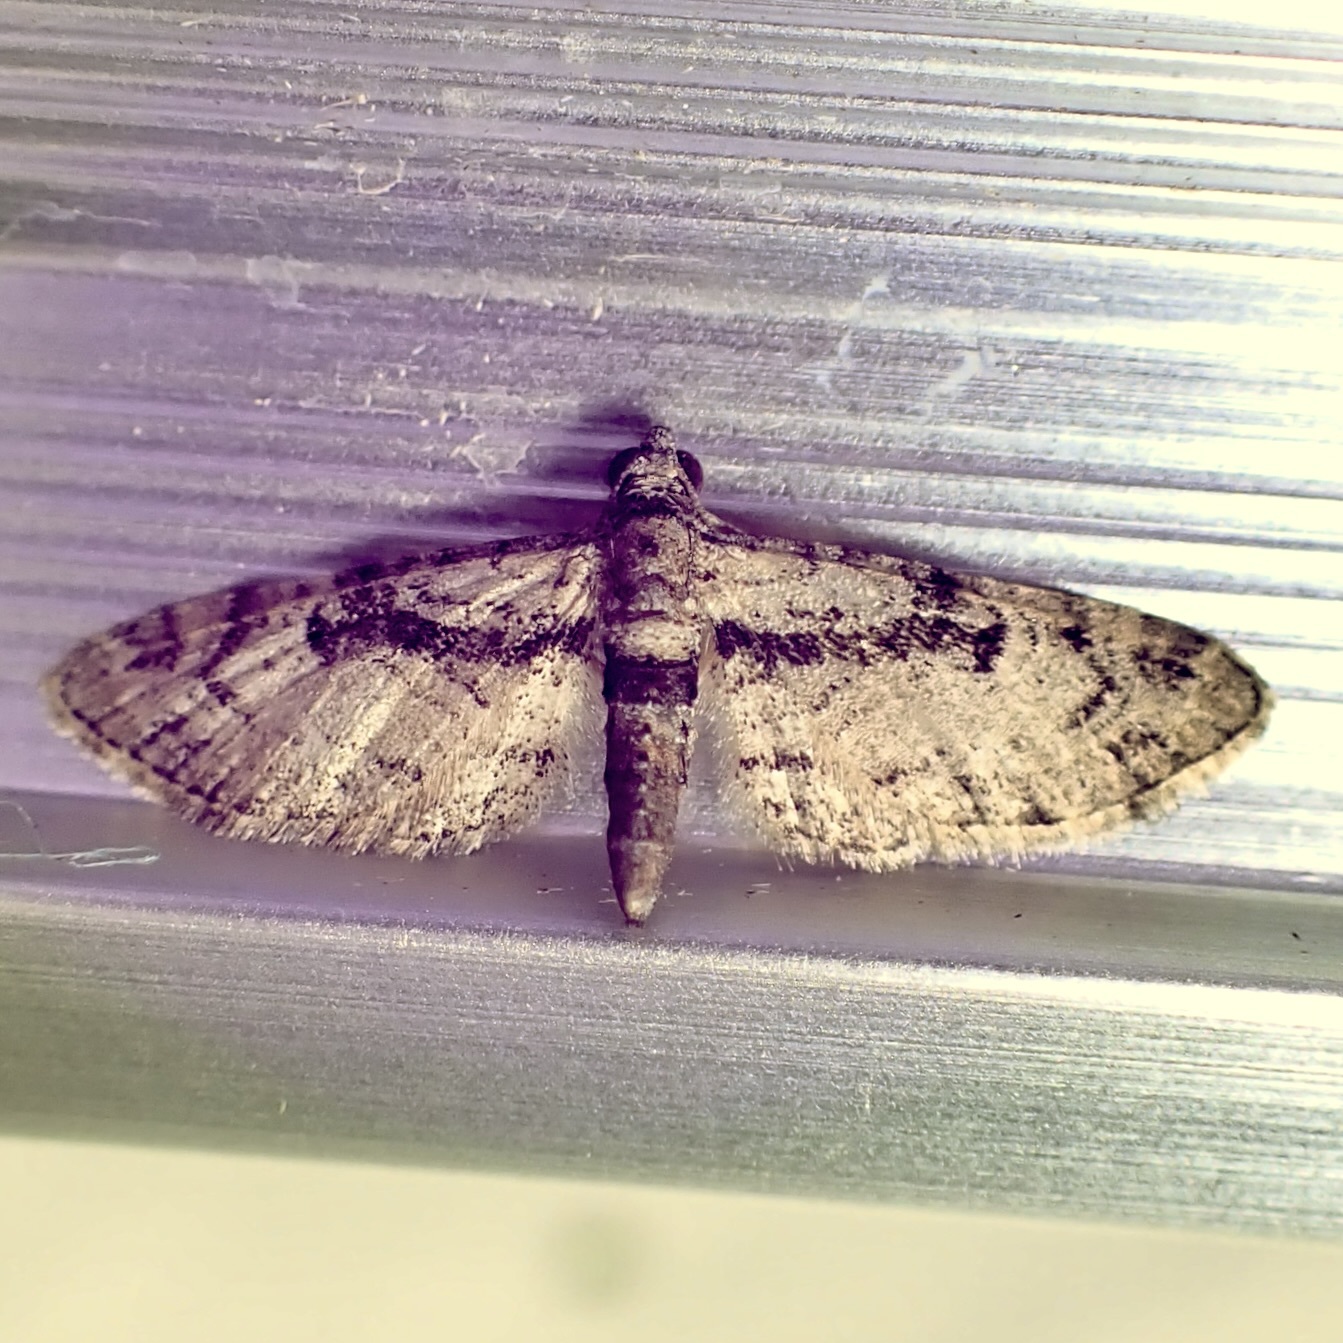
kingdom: Animalia
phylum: Arthropoda
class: Insecta
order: Lepidoptera
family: Geometridae
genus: Eupithecia
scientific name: Eupithecia
